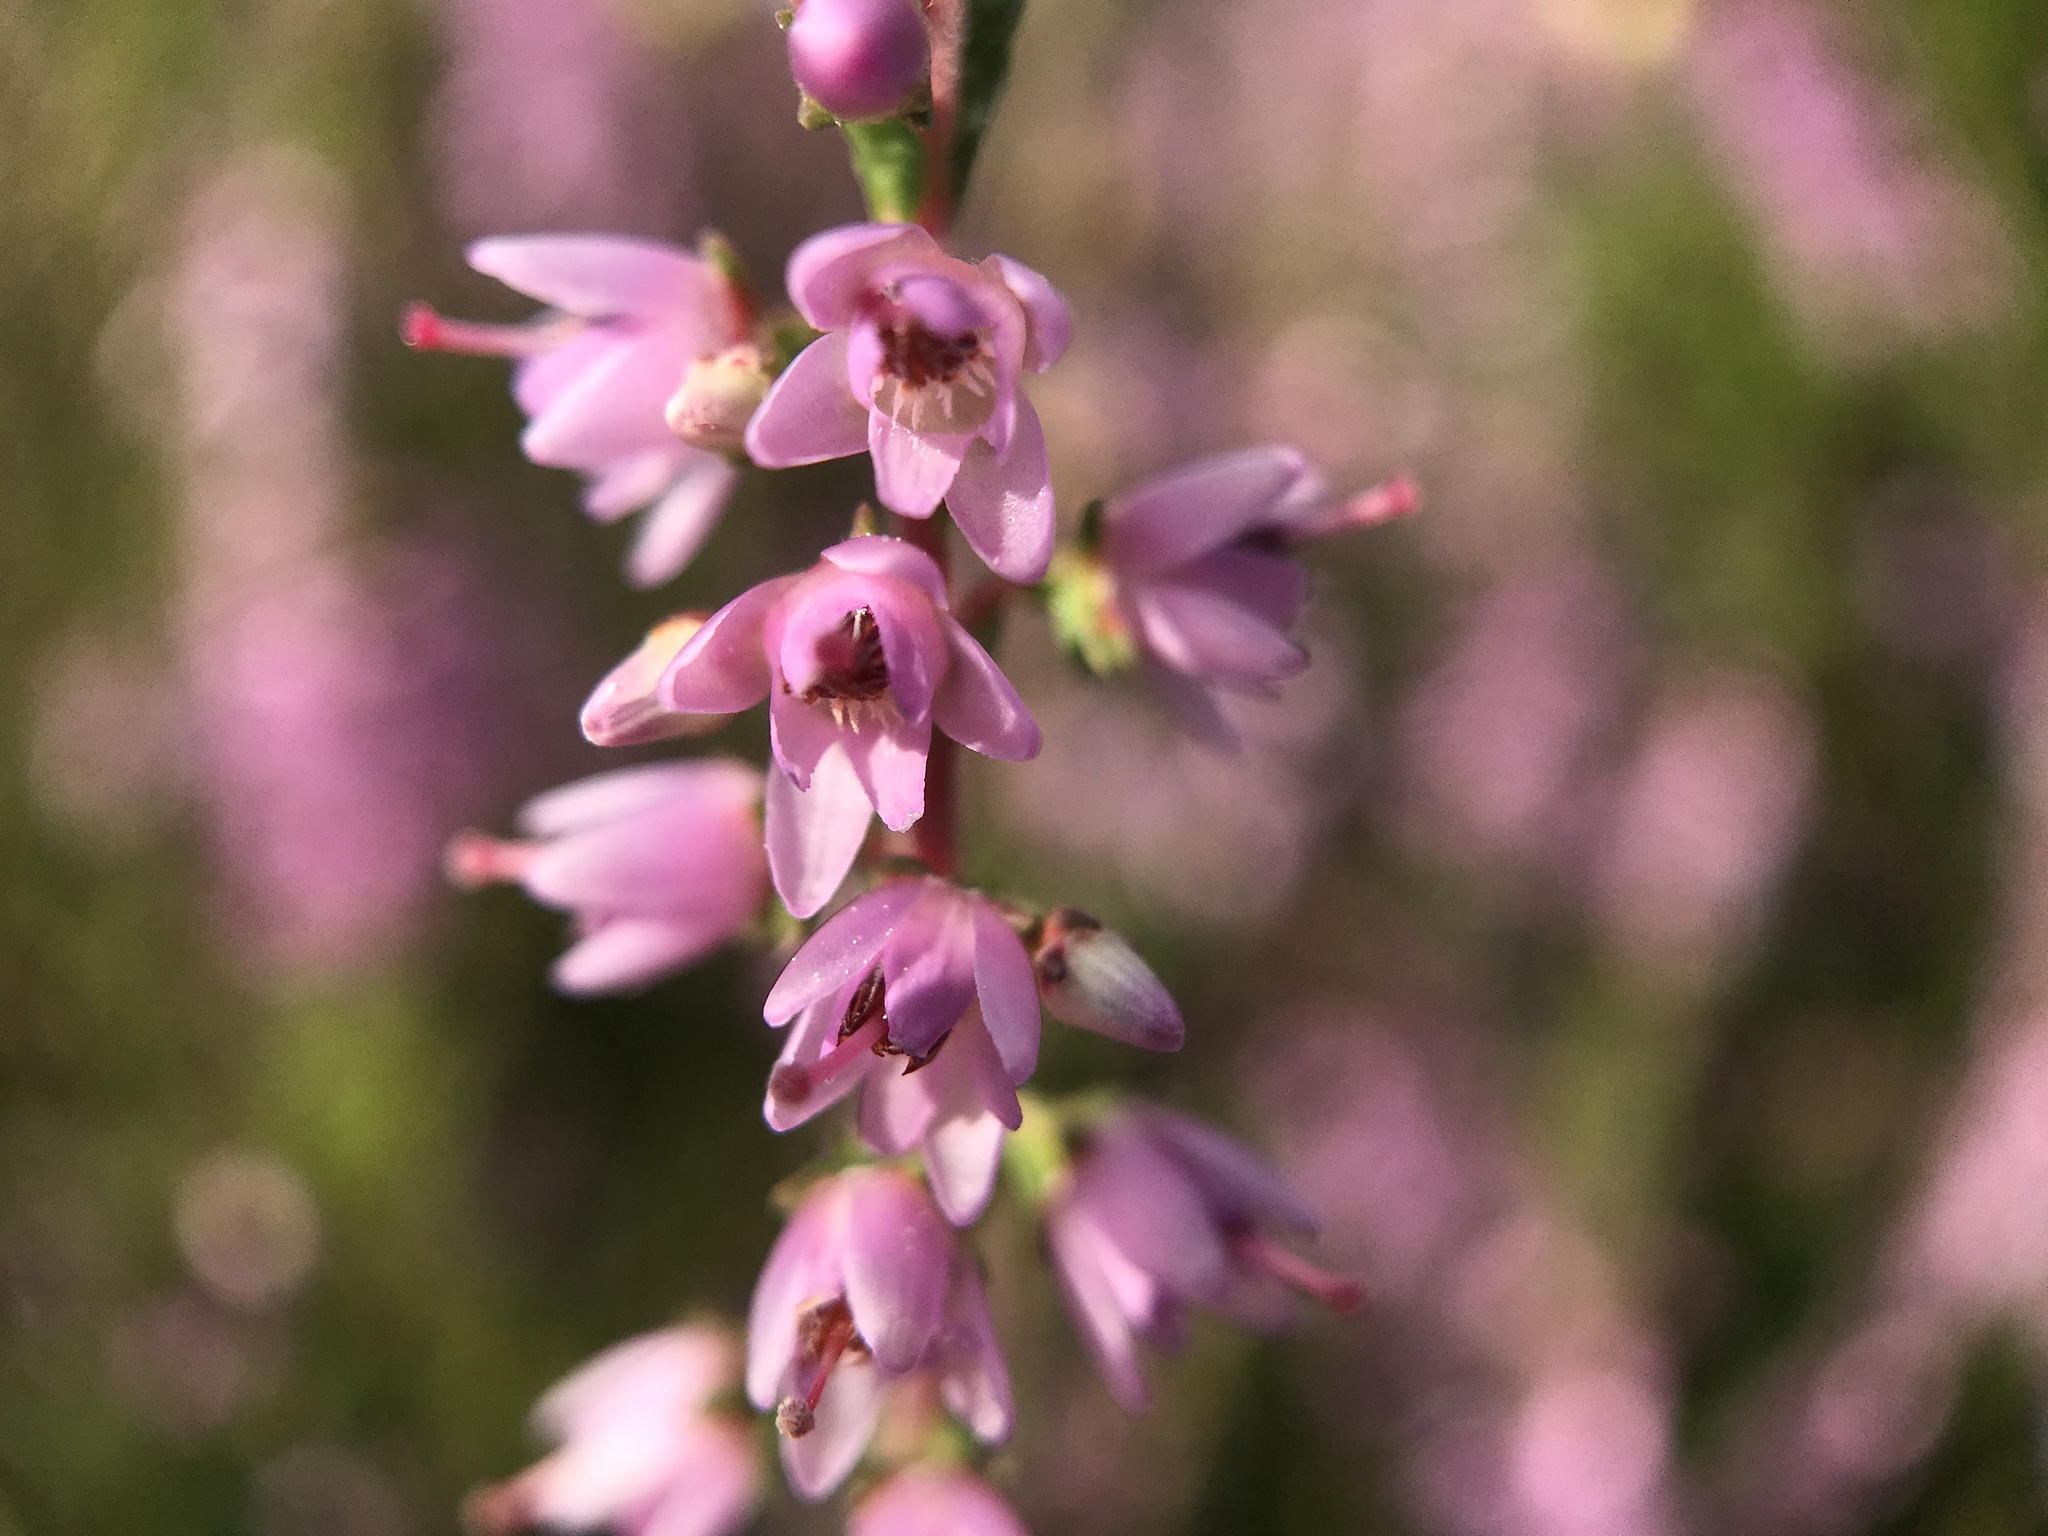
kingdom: Plantae
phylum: Tracheophyta
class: Magnoliopsida
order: Ericales
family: Ericaceae
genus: Calluna
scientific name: Calluna vulgaris
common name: Heather
